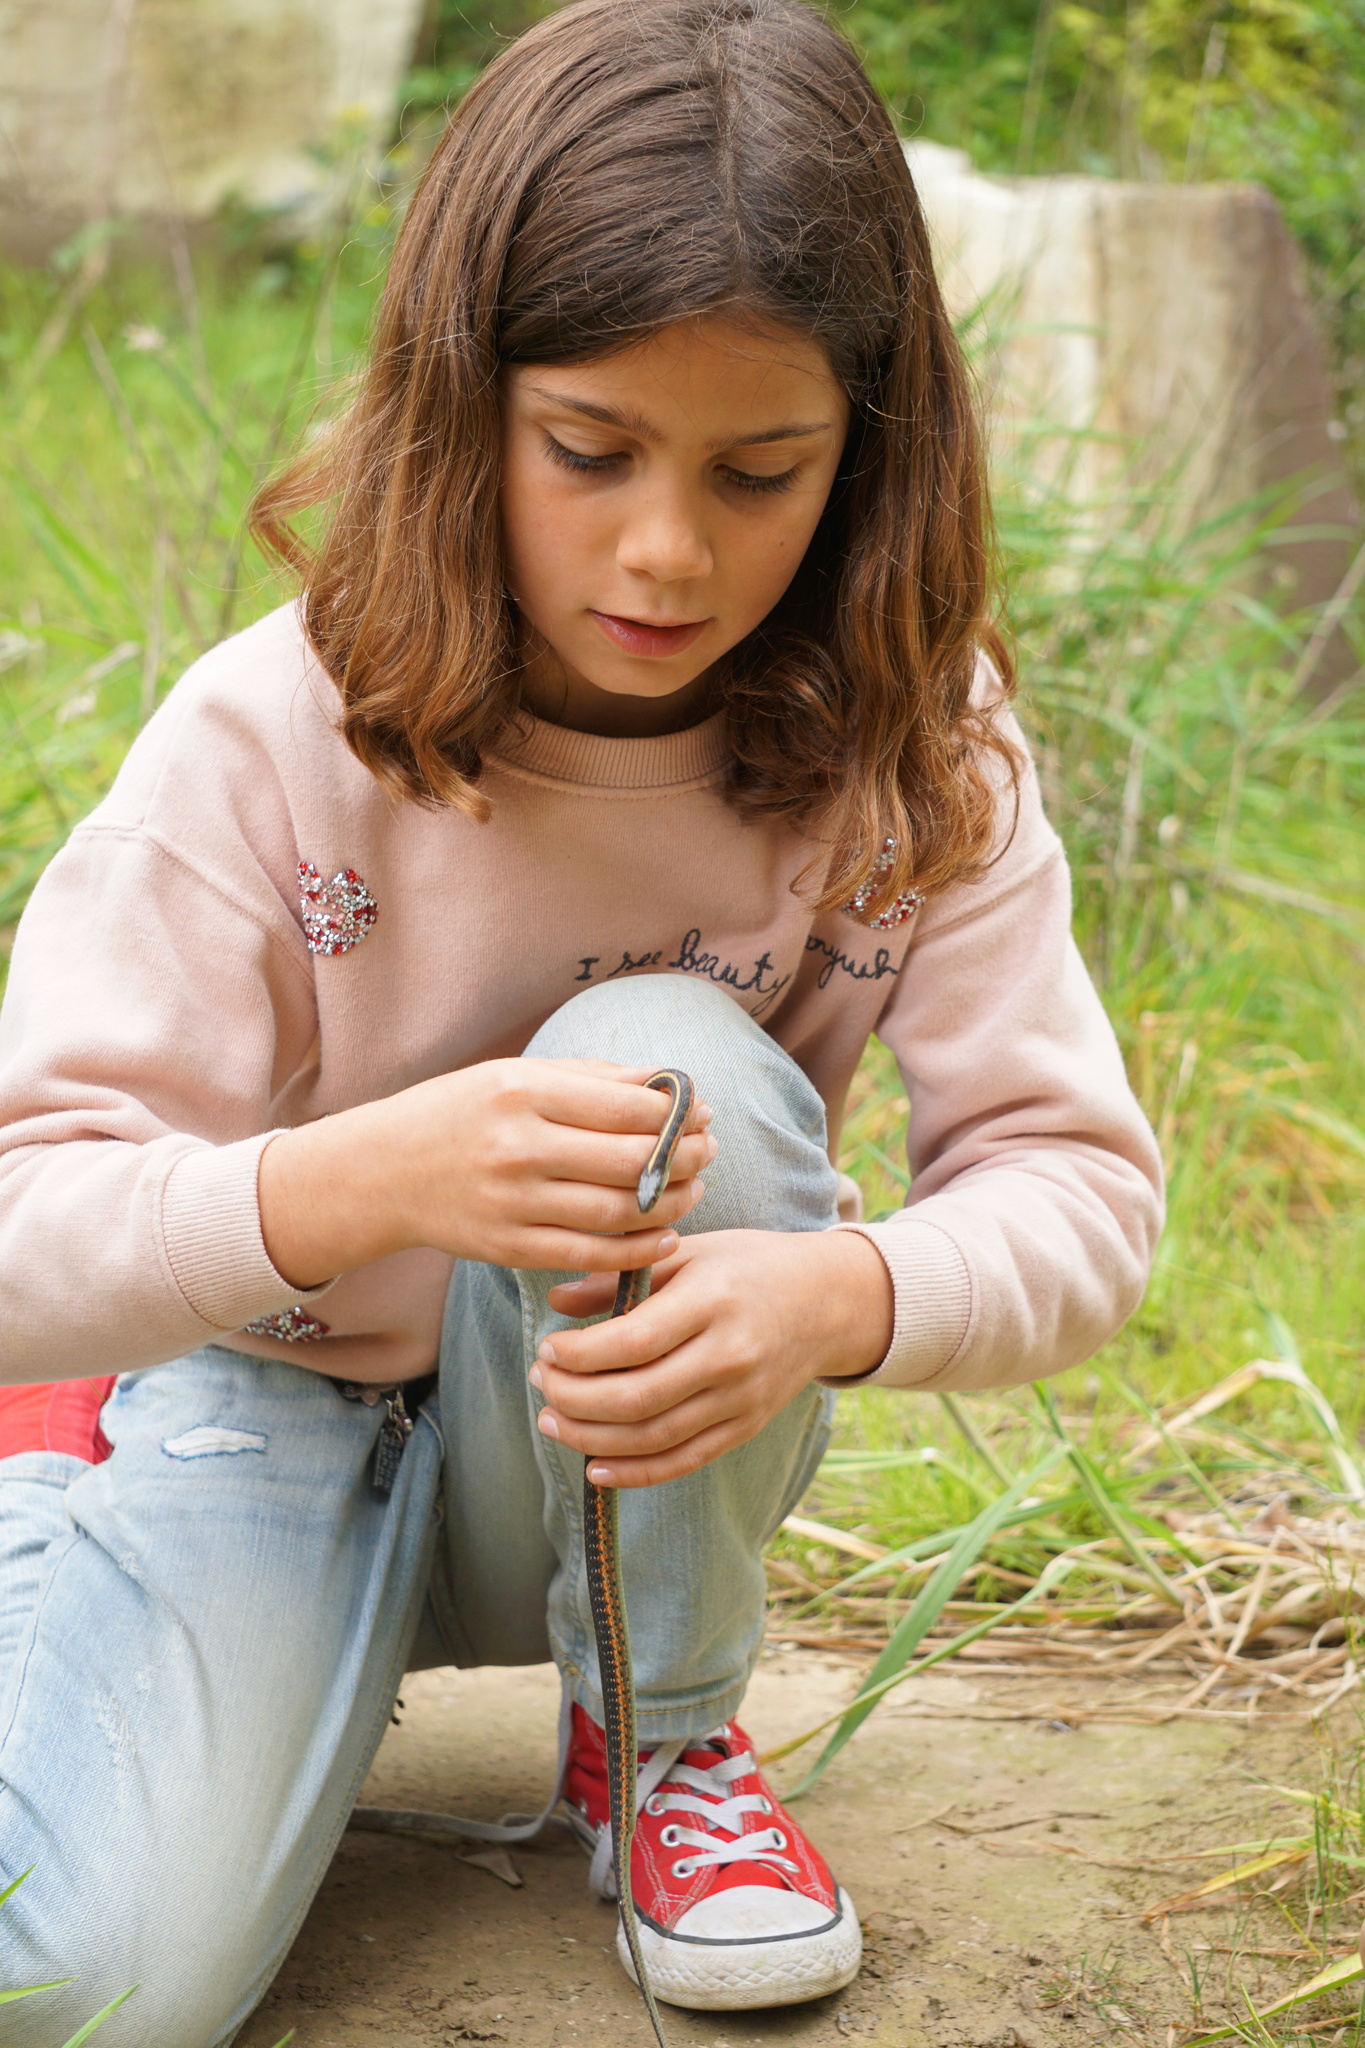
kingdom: Animalia
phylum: Chordata
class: Squamata
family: Colubridae
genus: Thamnophis
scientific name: Thamnophis elegans
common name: Western terrestrial garter snake
